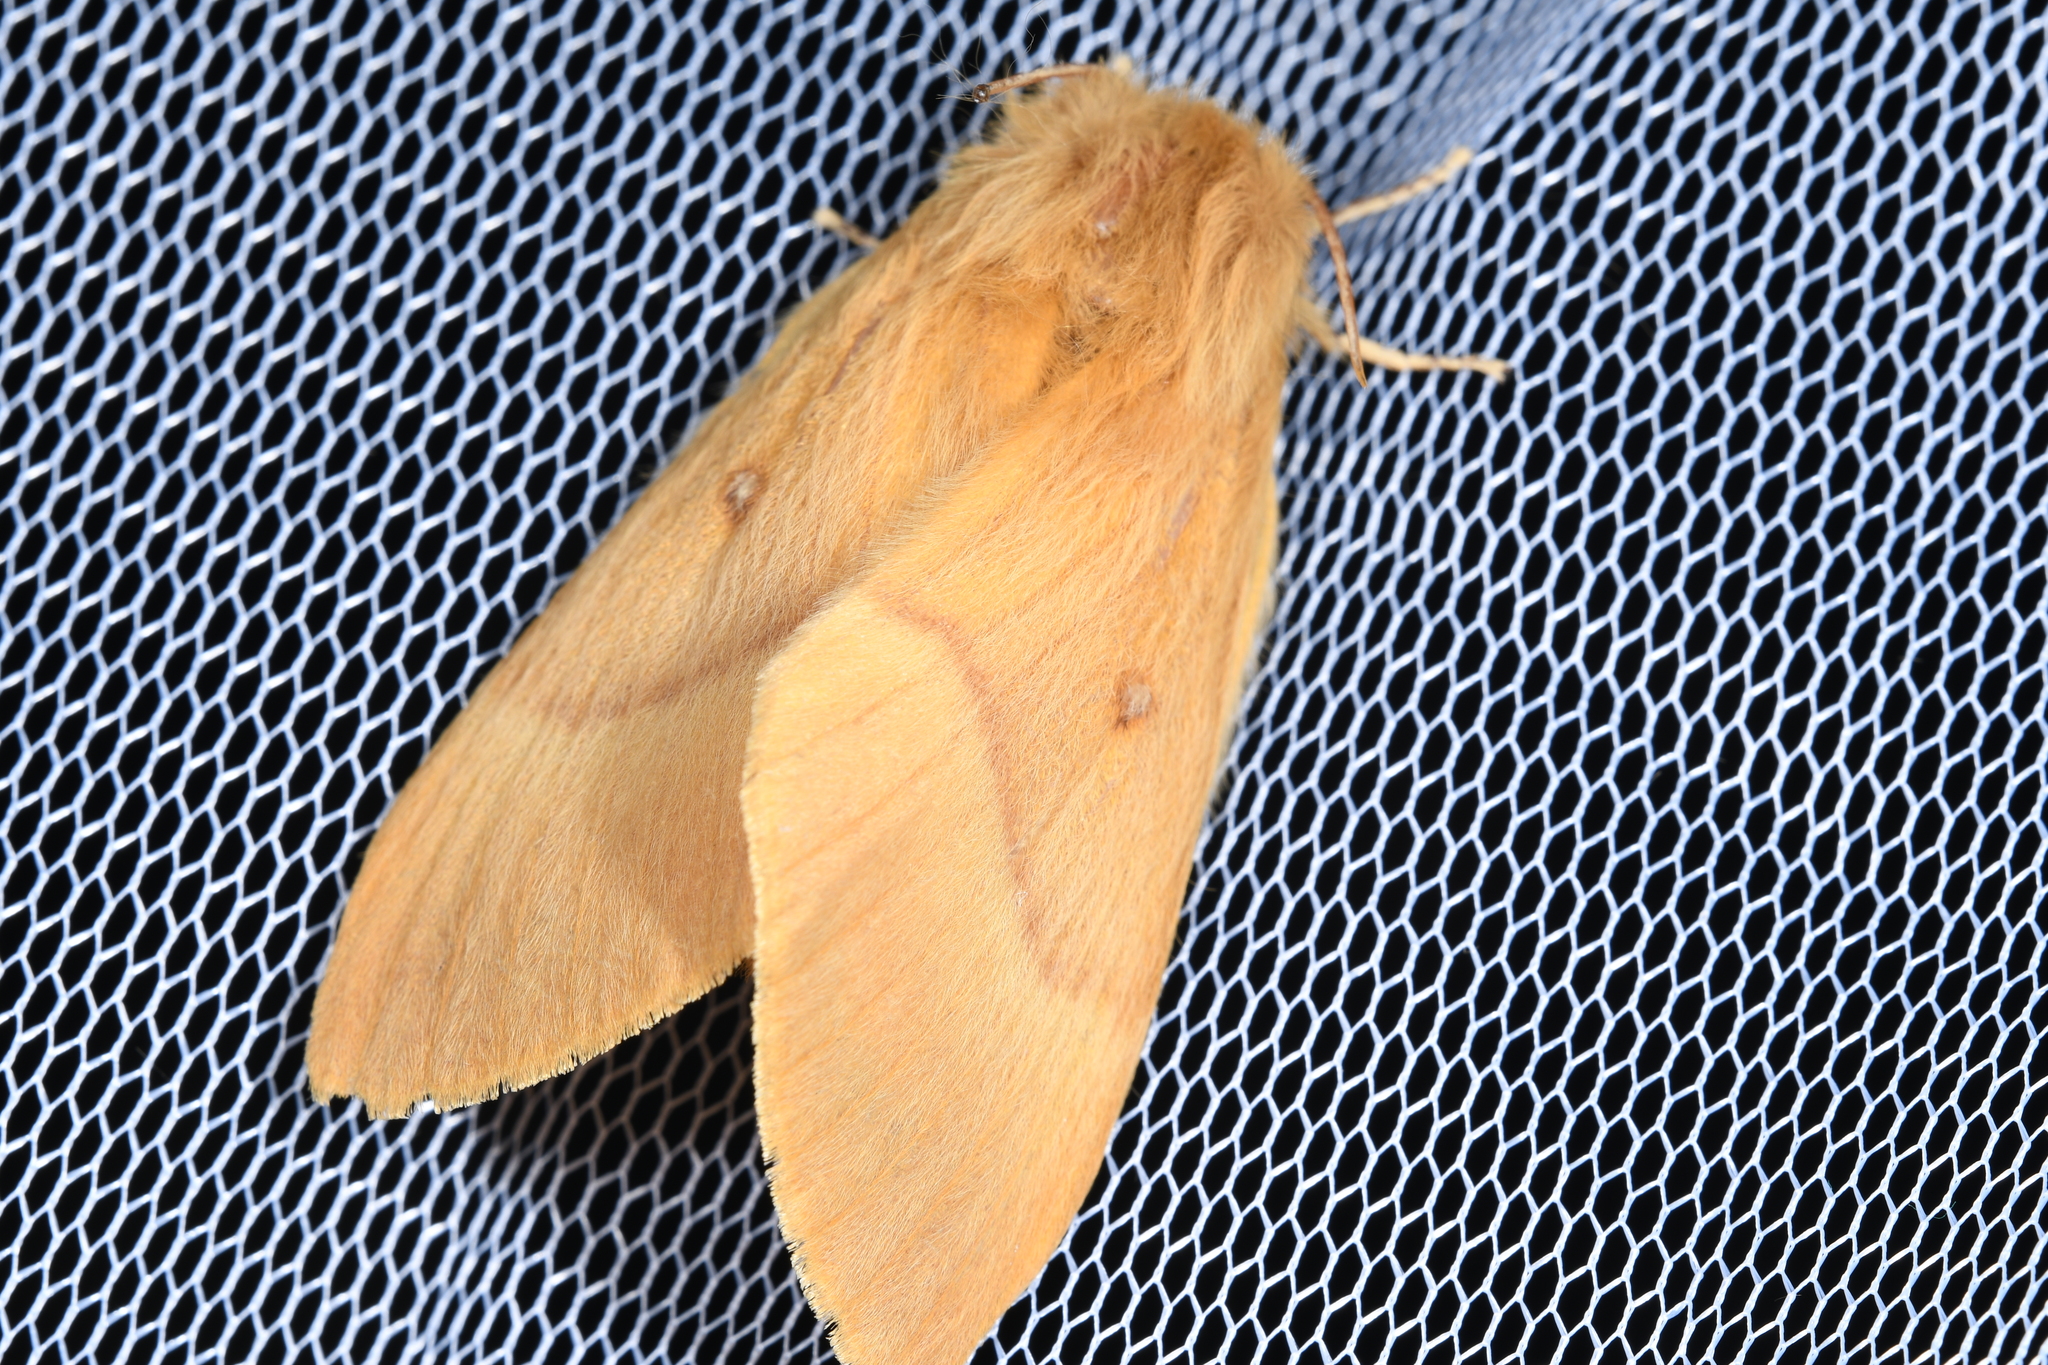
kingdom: Animalia
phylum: Arthropoda
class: Insecta
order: Lepidoptera
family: Lasiocampidae
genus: Lasiocampa
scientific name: Lasiocampa quercus
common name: Oak eggar
